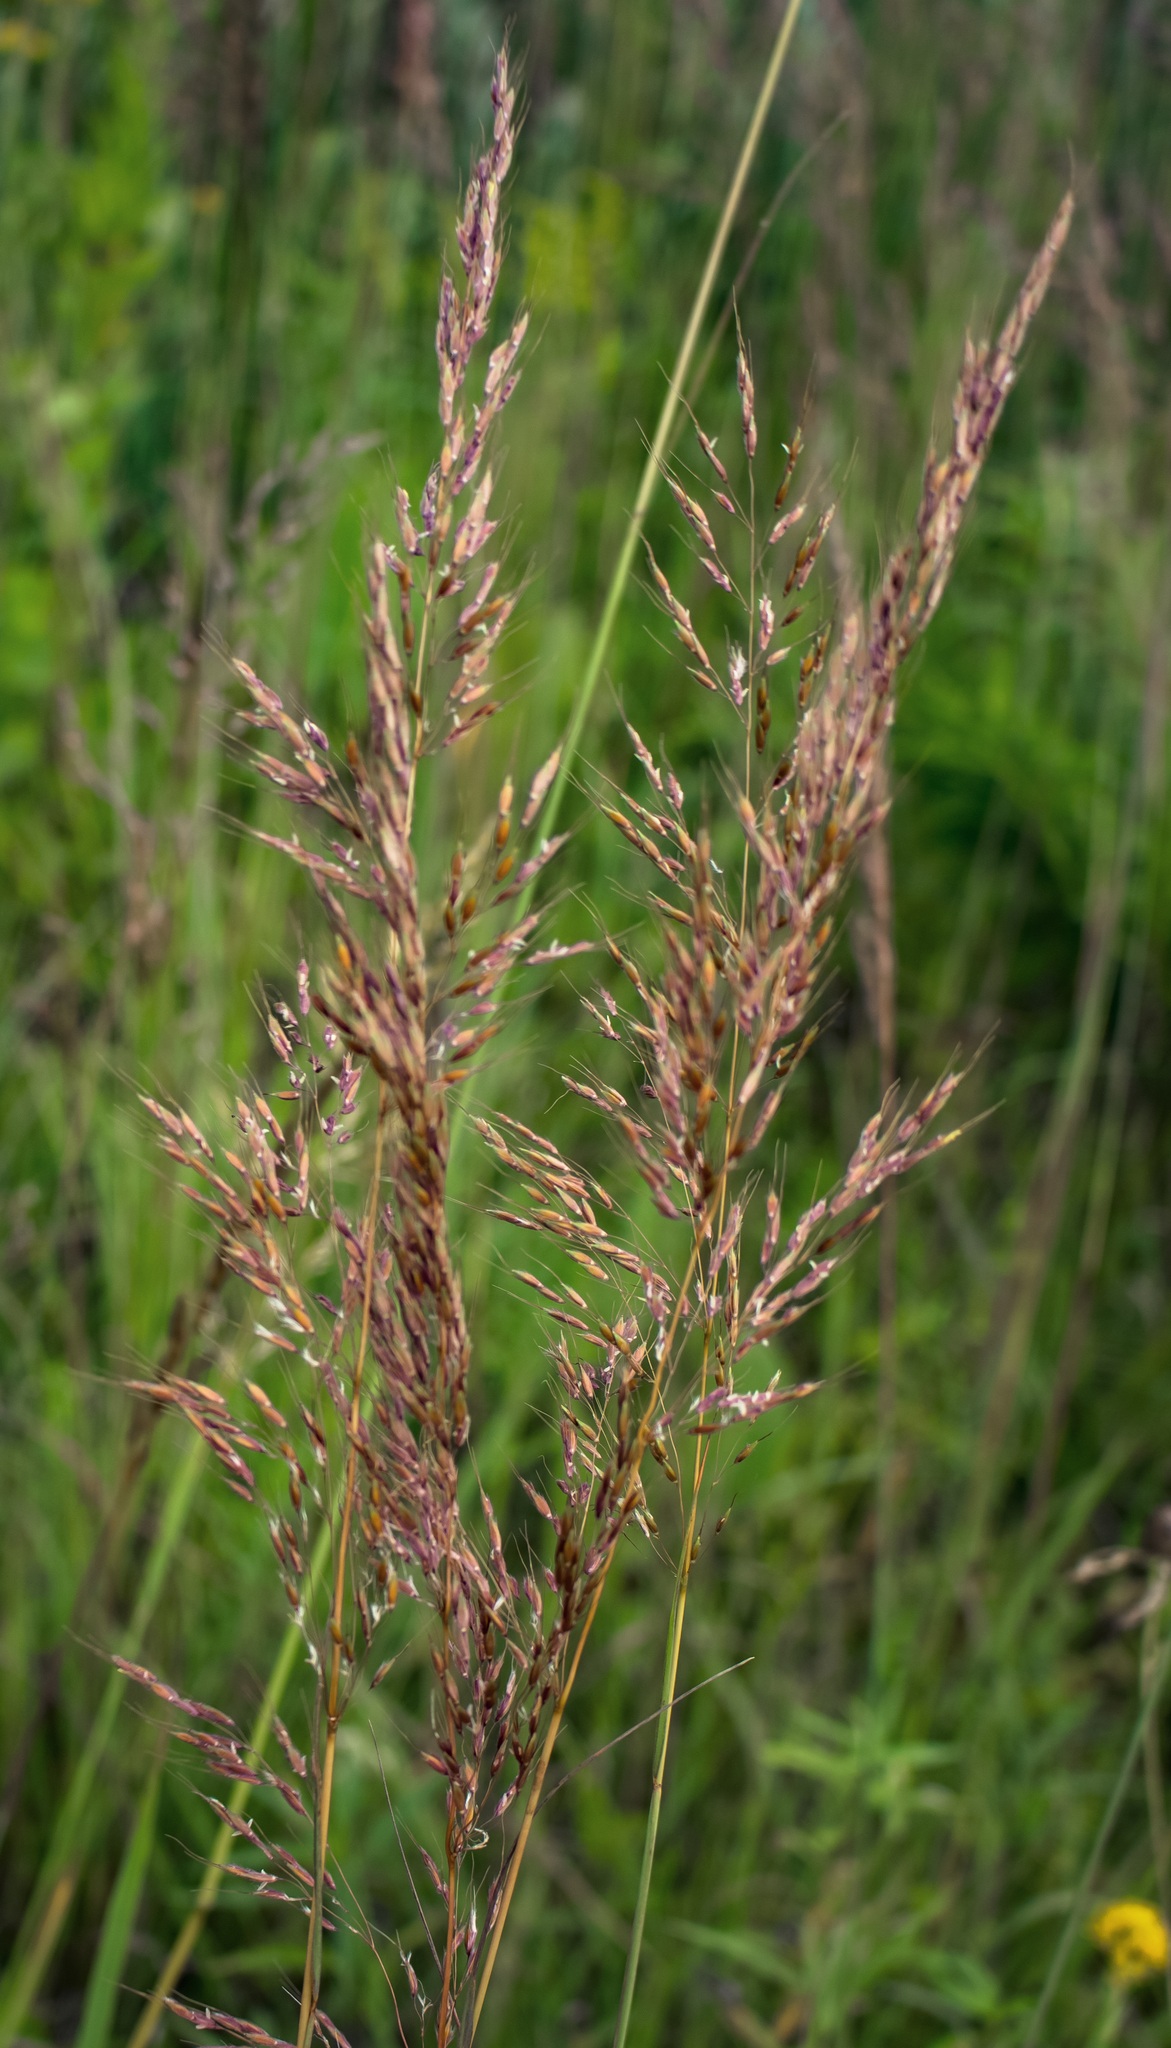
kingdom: Plantae
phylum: Tracheophyta
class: Liliopsida
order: Poales
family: Poaceae
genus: Sorghastrum
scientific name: Sorghastrum nutans
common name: Indian grass
